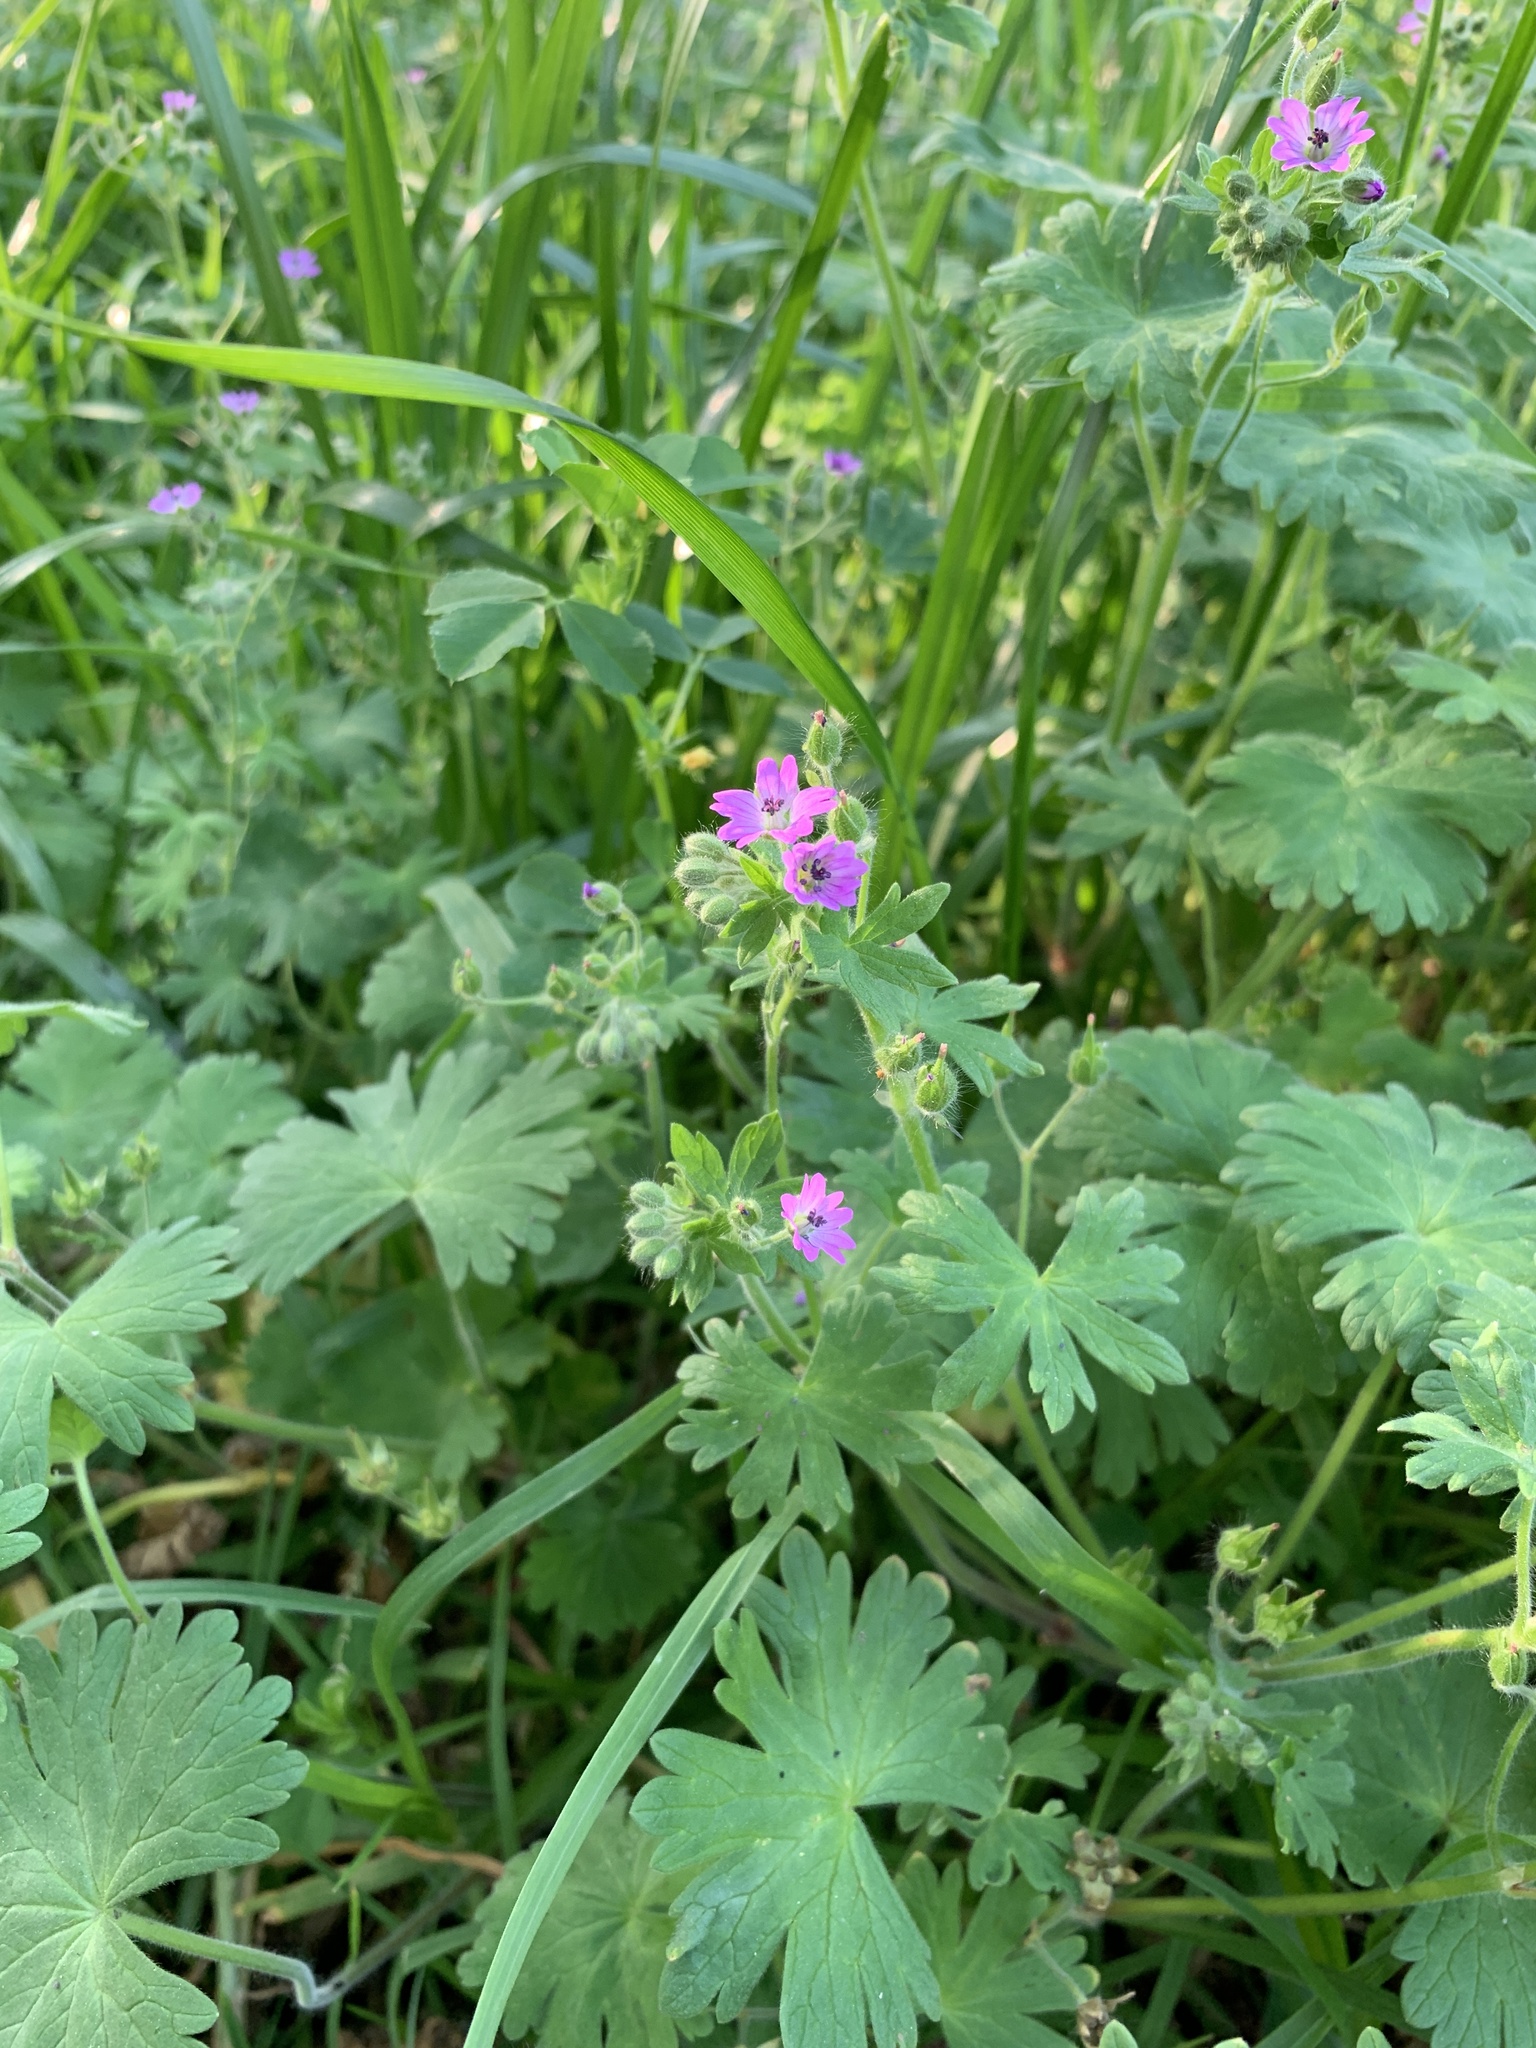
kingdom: Plantae
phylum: Tracheophyta
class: Magnoliopsida
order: Geraniales
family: Geraniaceae
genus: Geranium
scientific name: Geranium molle
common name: Dove's-foot crane's-bill
